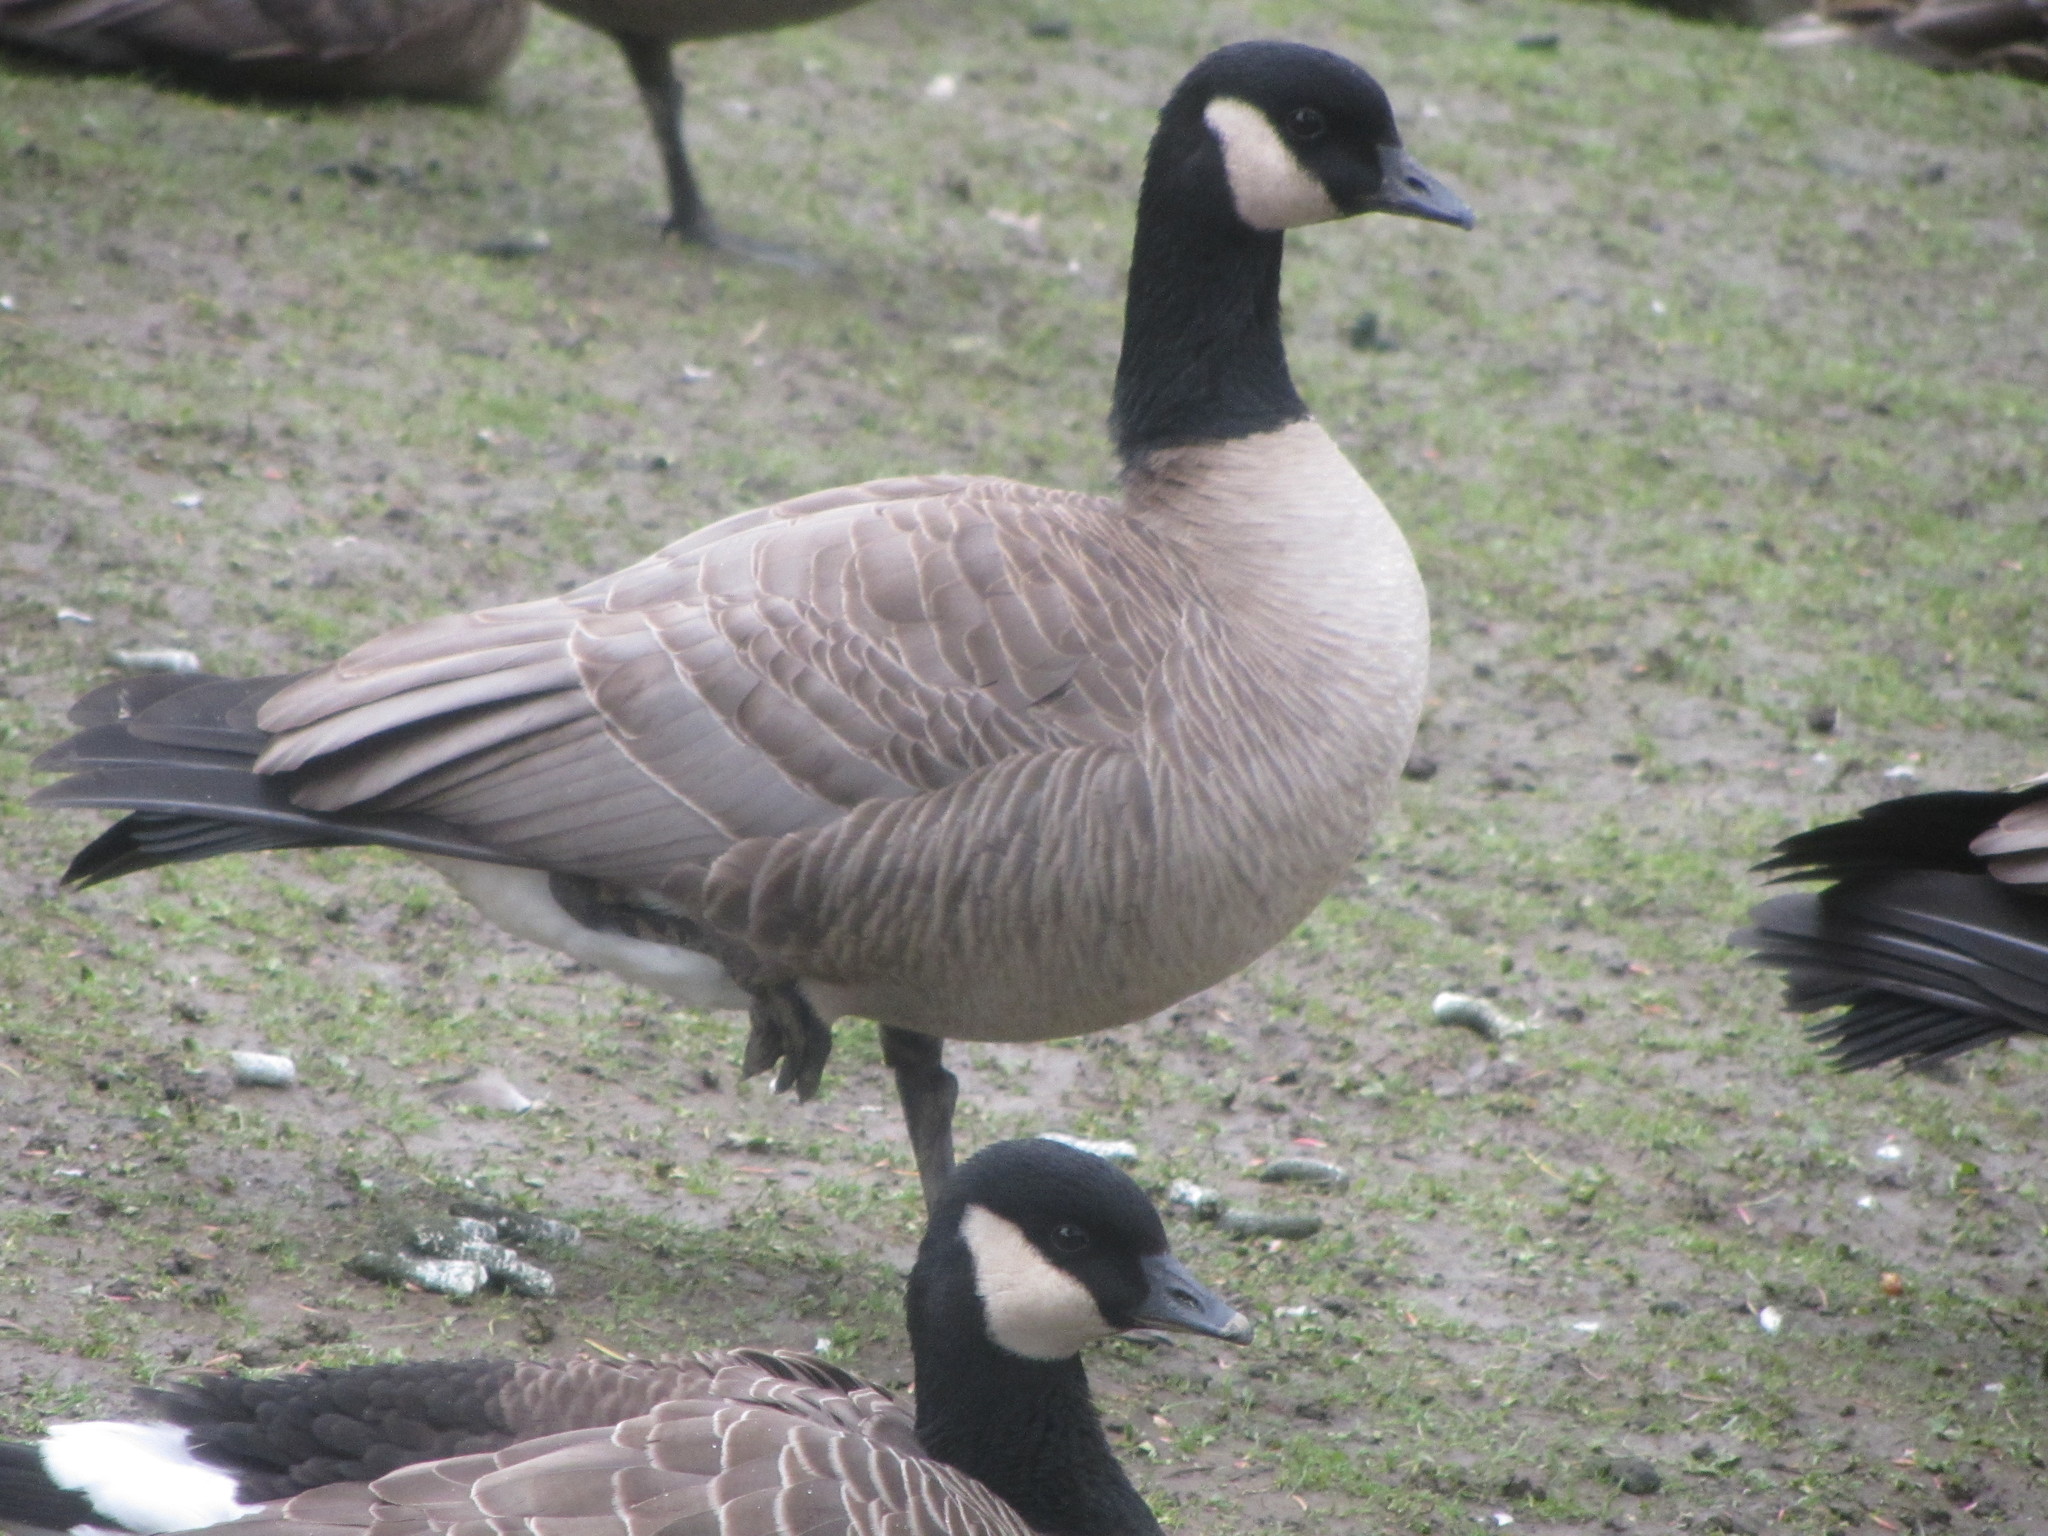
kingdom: Animalia
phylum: Chordata
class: Aves
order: Anseriformes
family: Anatidae
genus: Branta
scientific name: Branta hutchinsii
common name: Cackling goose
